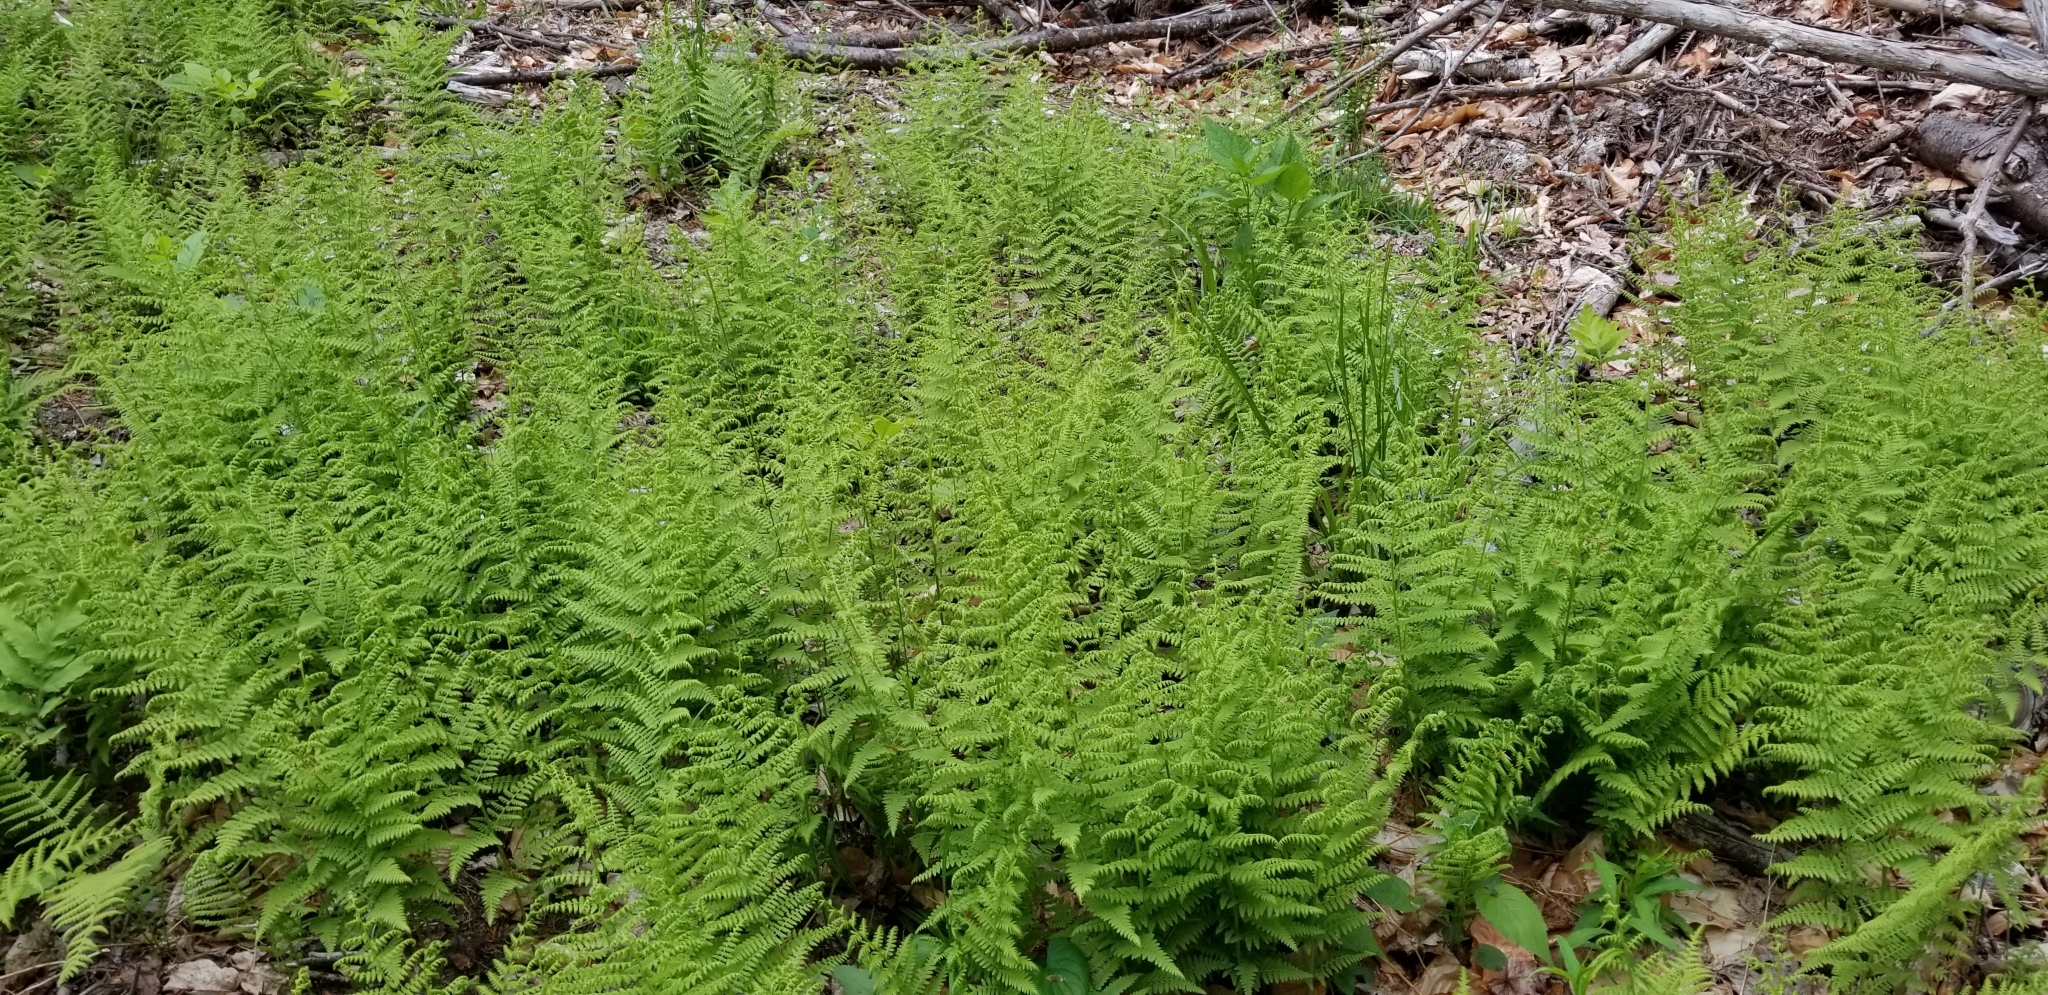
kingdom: Plantae
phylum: Tracheophyta
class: Polypodiopsida
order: Polypodiales
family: Dennstaedtiaceae
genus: Sitobolium
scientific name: Sitobolium punctilobum
